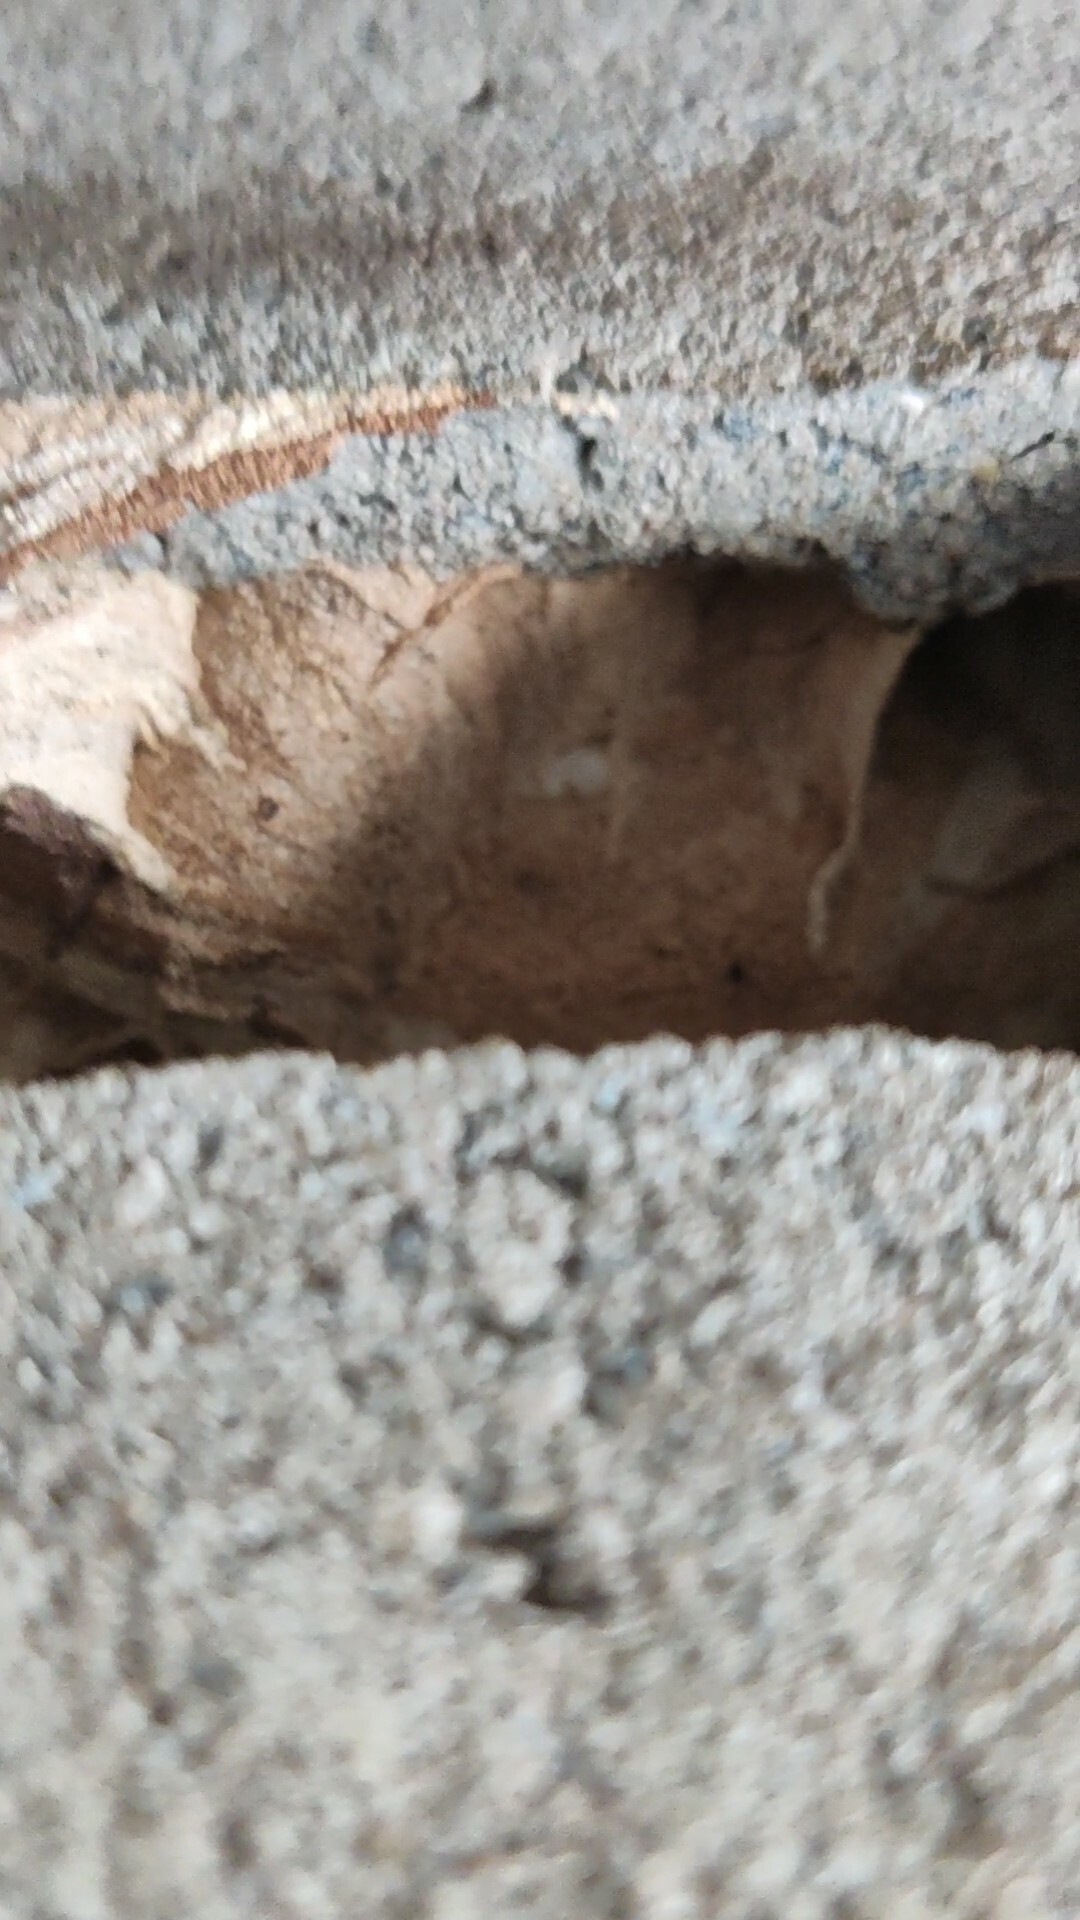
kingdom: Animalia
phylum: Arthropoda
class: Insecta
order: Hymenoptera
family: Vespidae
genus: Vespa
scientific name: Vespa crabro
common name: Hornet
